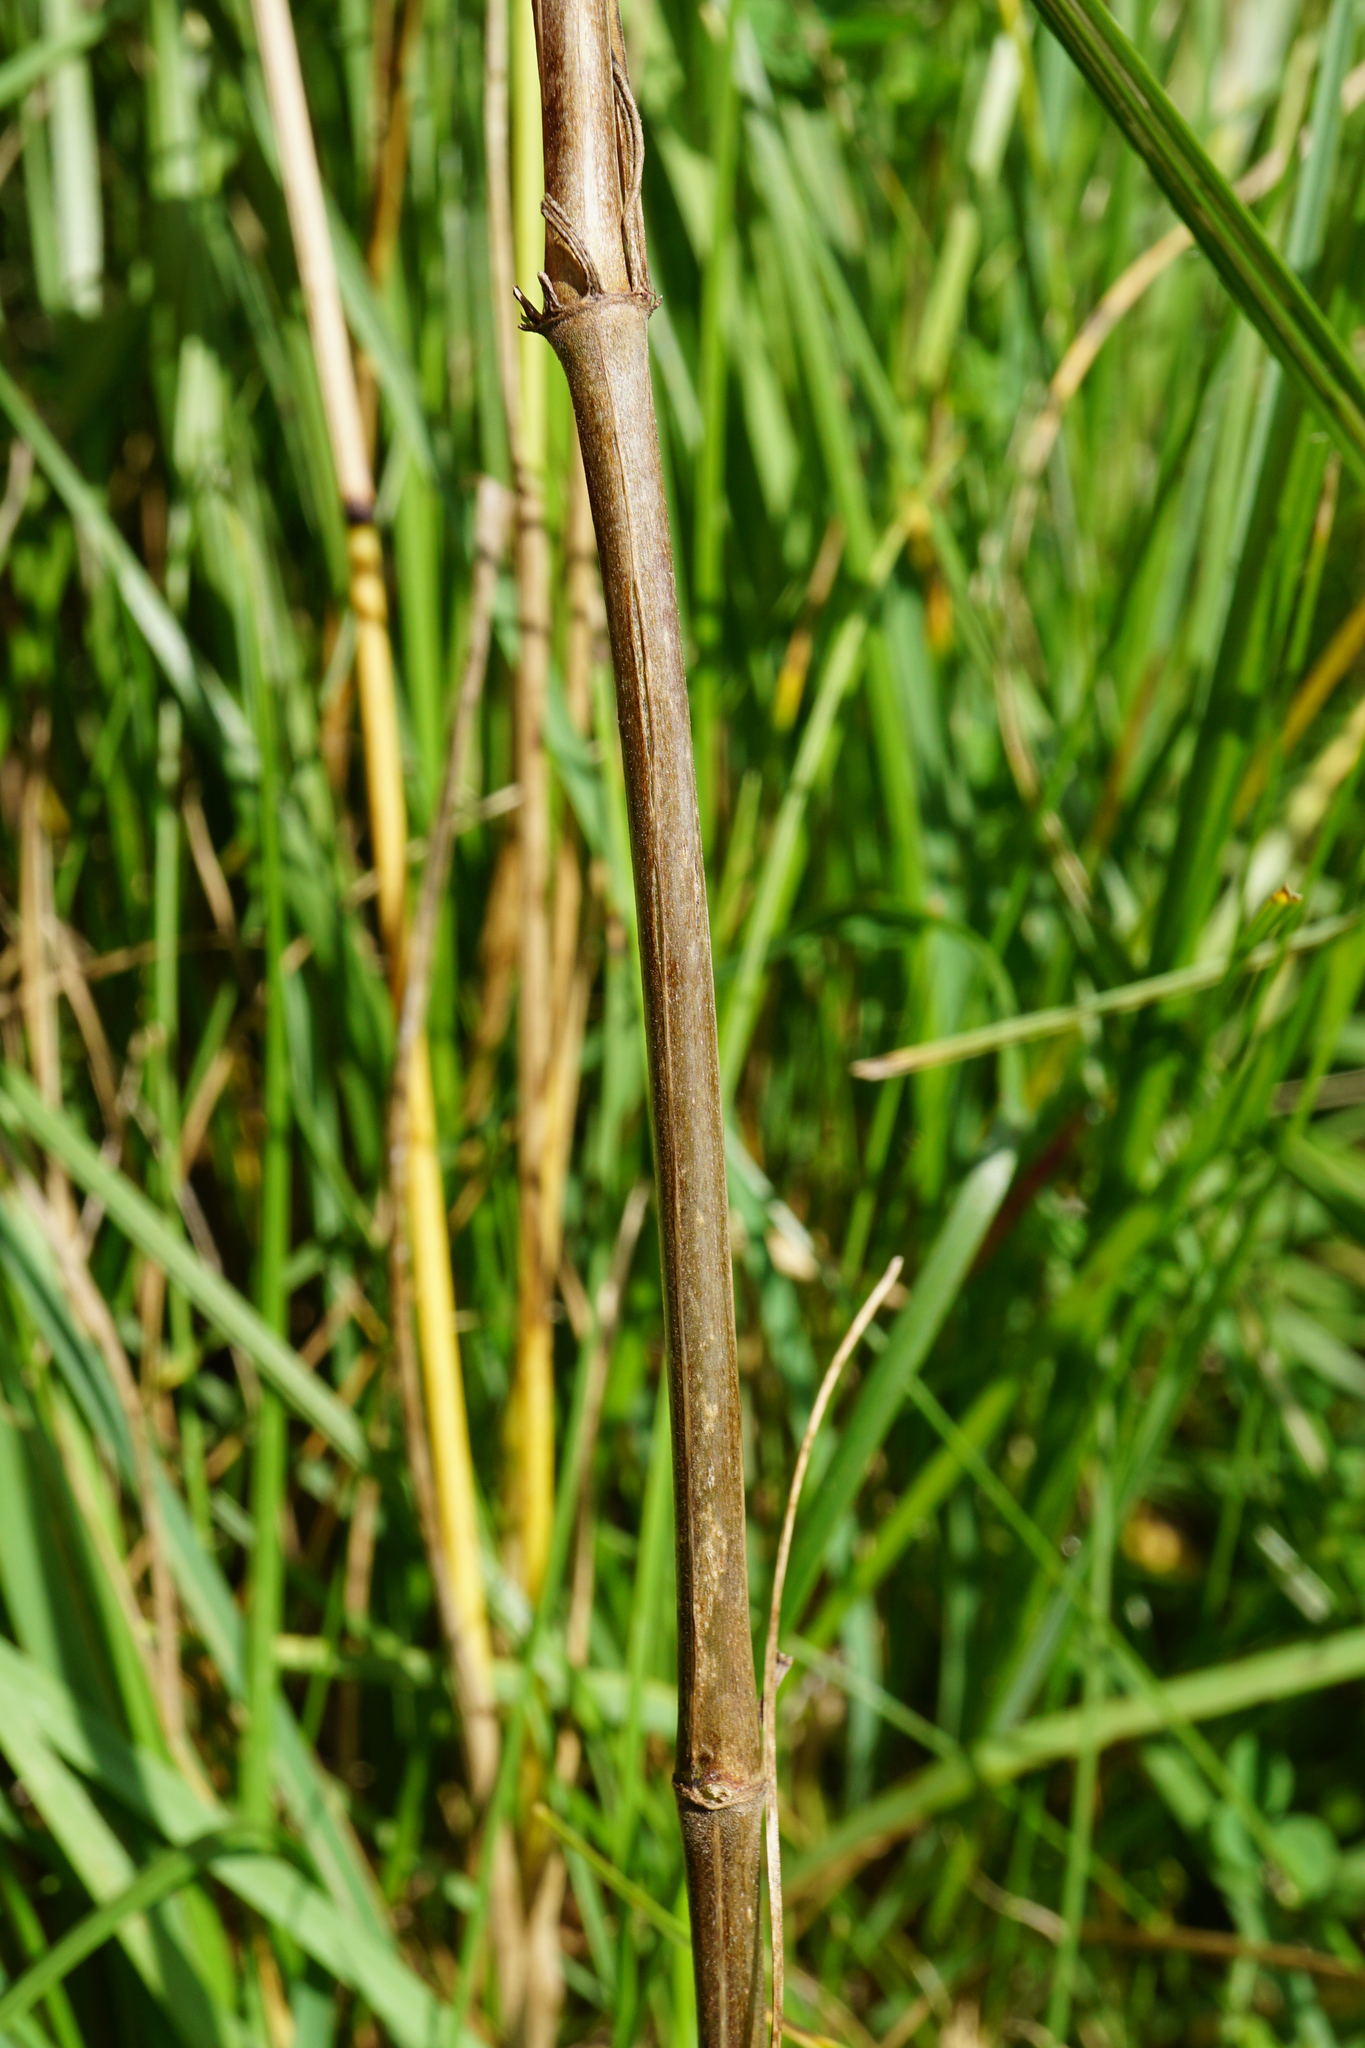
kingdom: Plantae
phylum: Tracheophyta
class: Magnoliopsida
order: Gentianales
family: Rubiaceae
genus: Galium
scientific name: Galium pomeranicum
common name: Bedstraw
